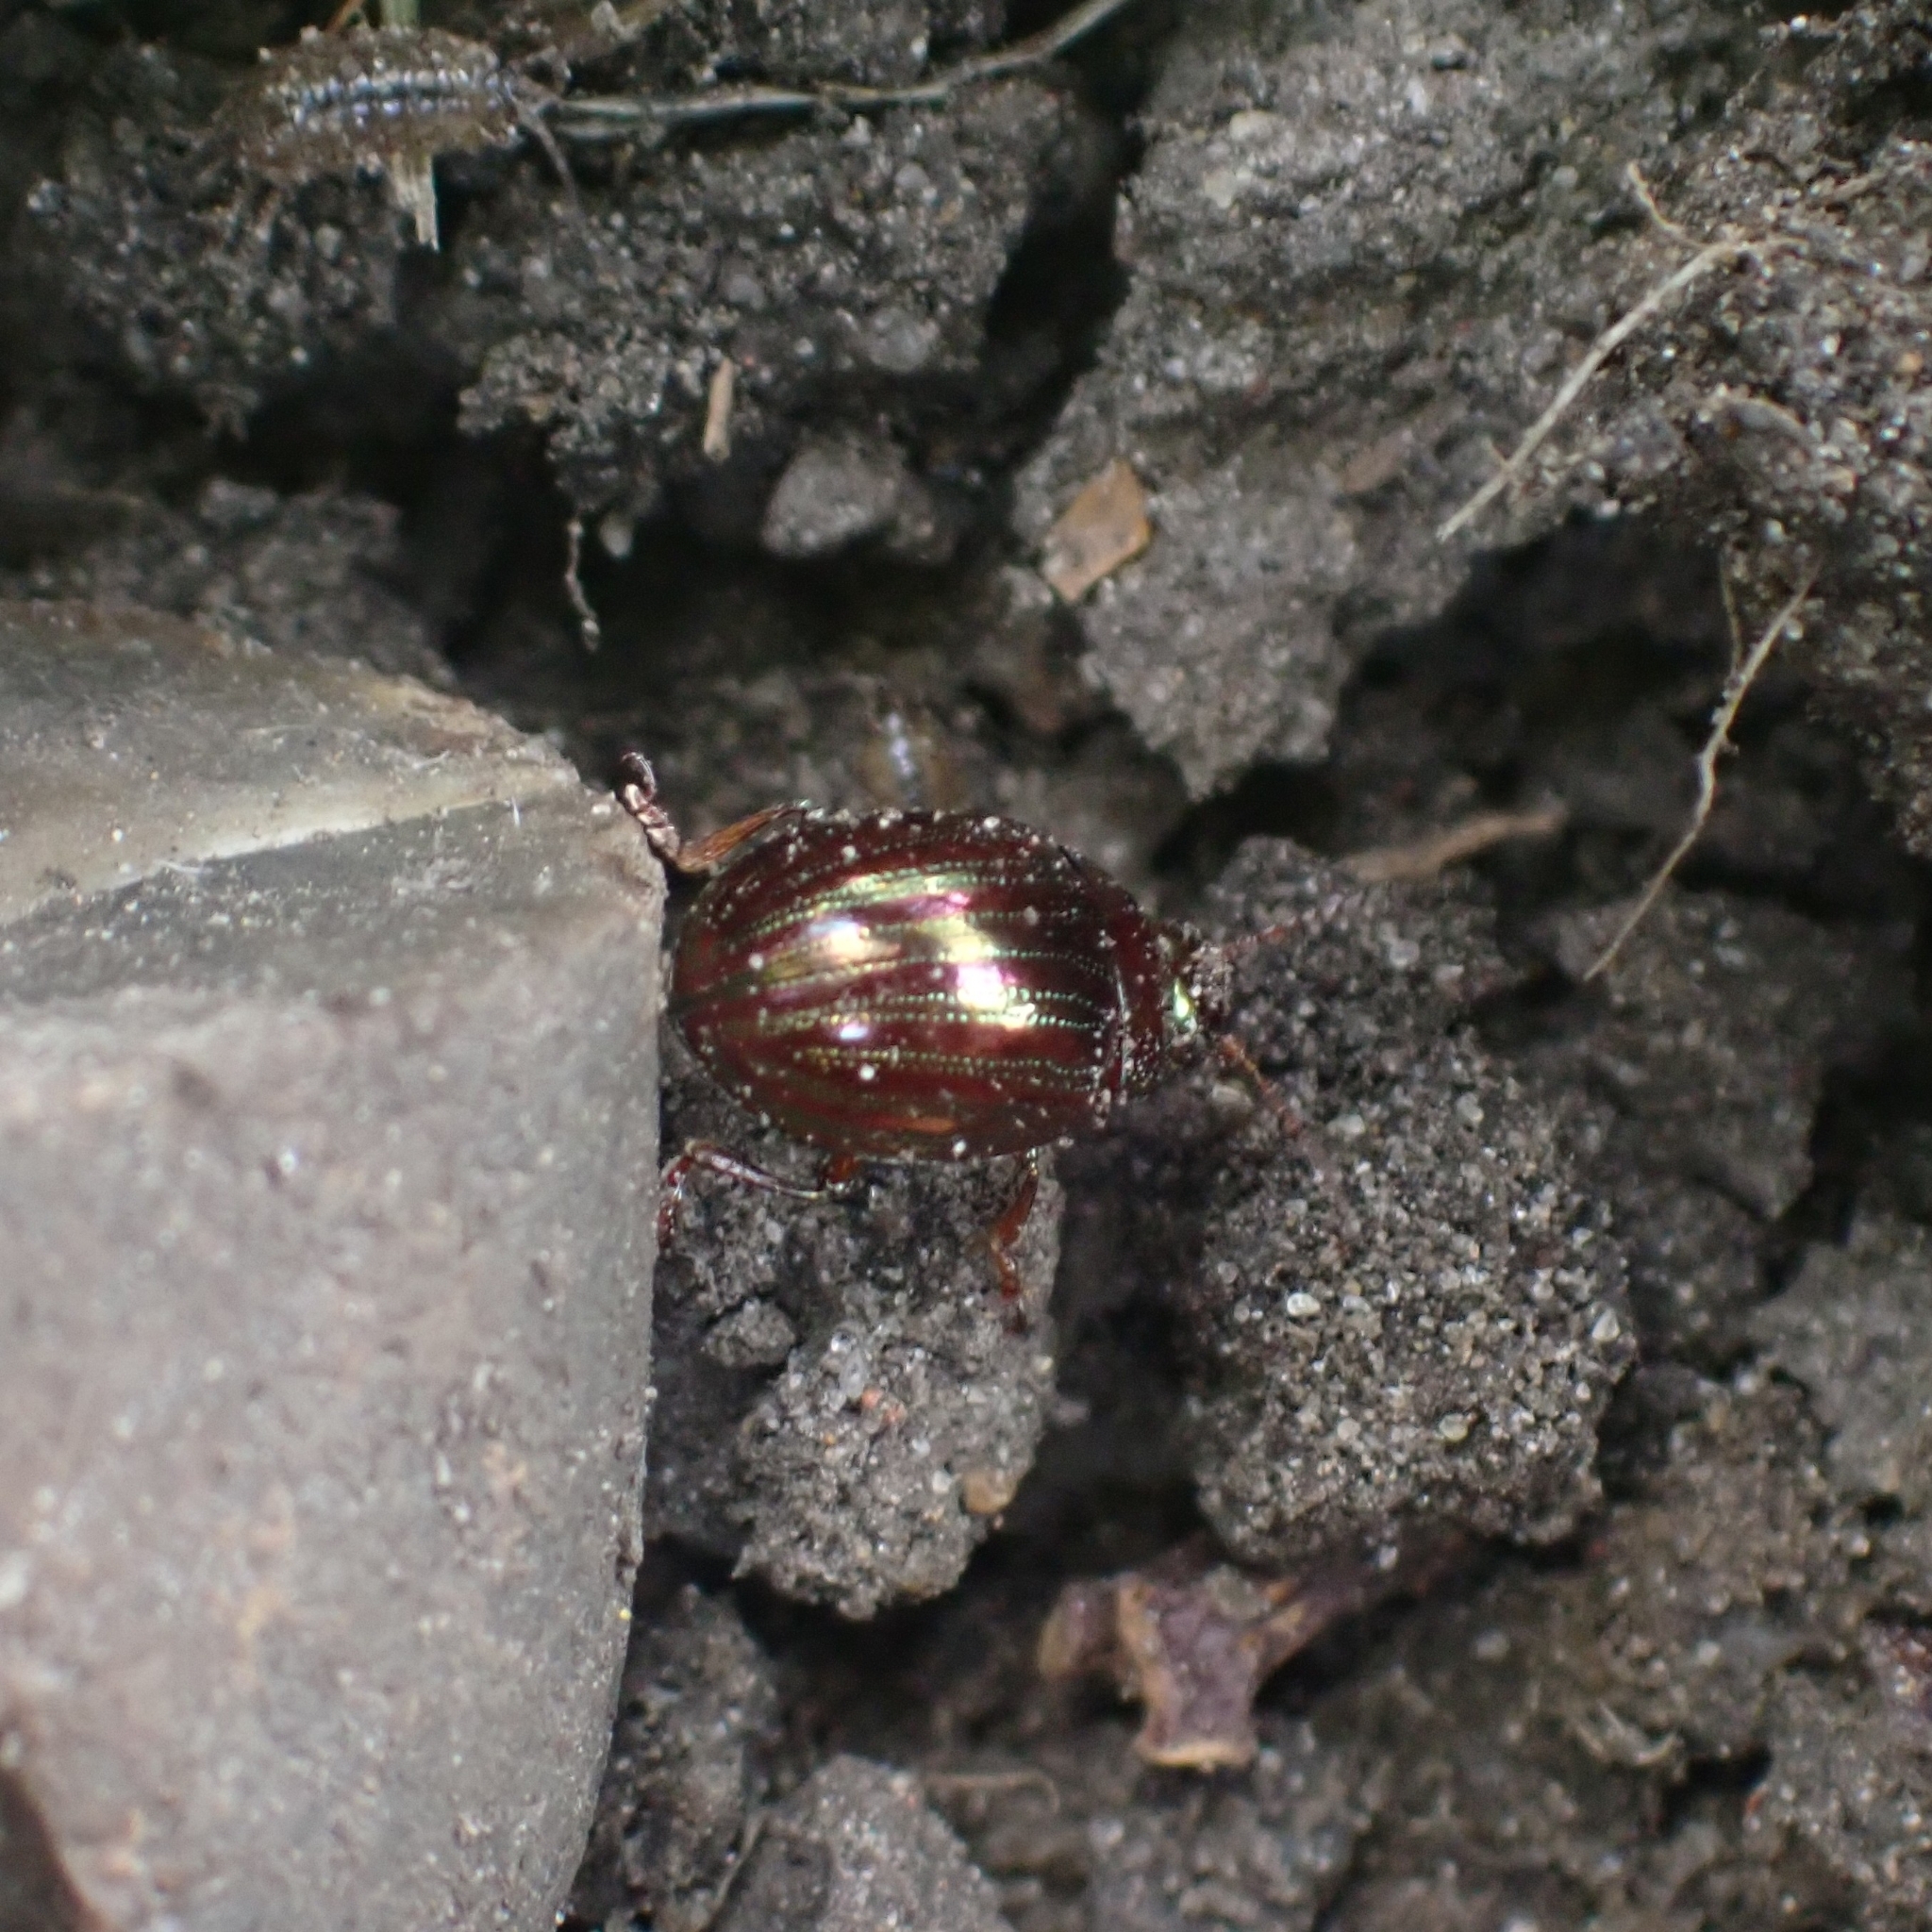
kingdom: Animalia
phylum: Arthropoda
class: Insecta
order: Coleoptera
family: Chrysomelidae
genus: Chrysolina
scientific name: Chrysolina americana
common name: Rosemary beetle
